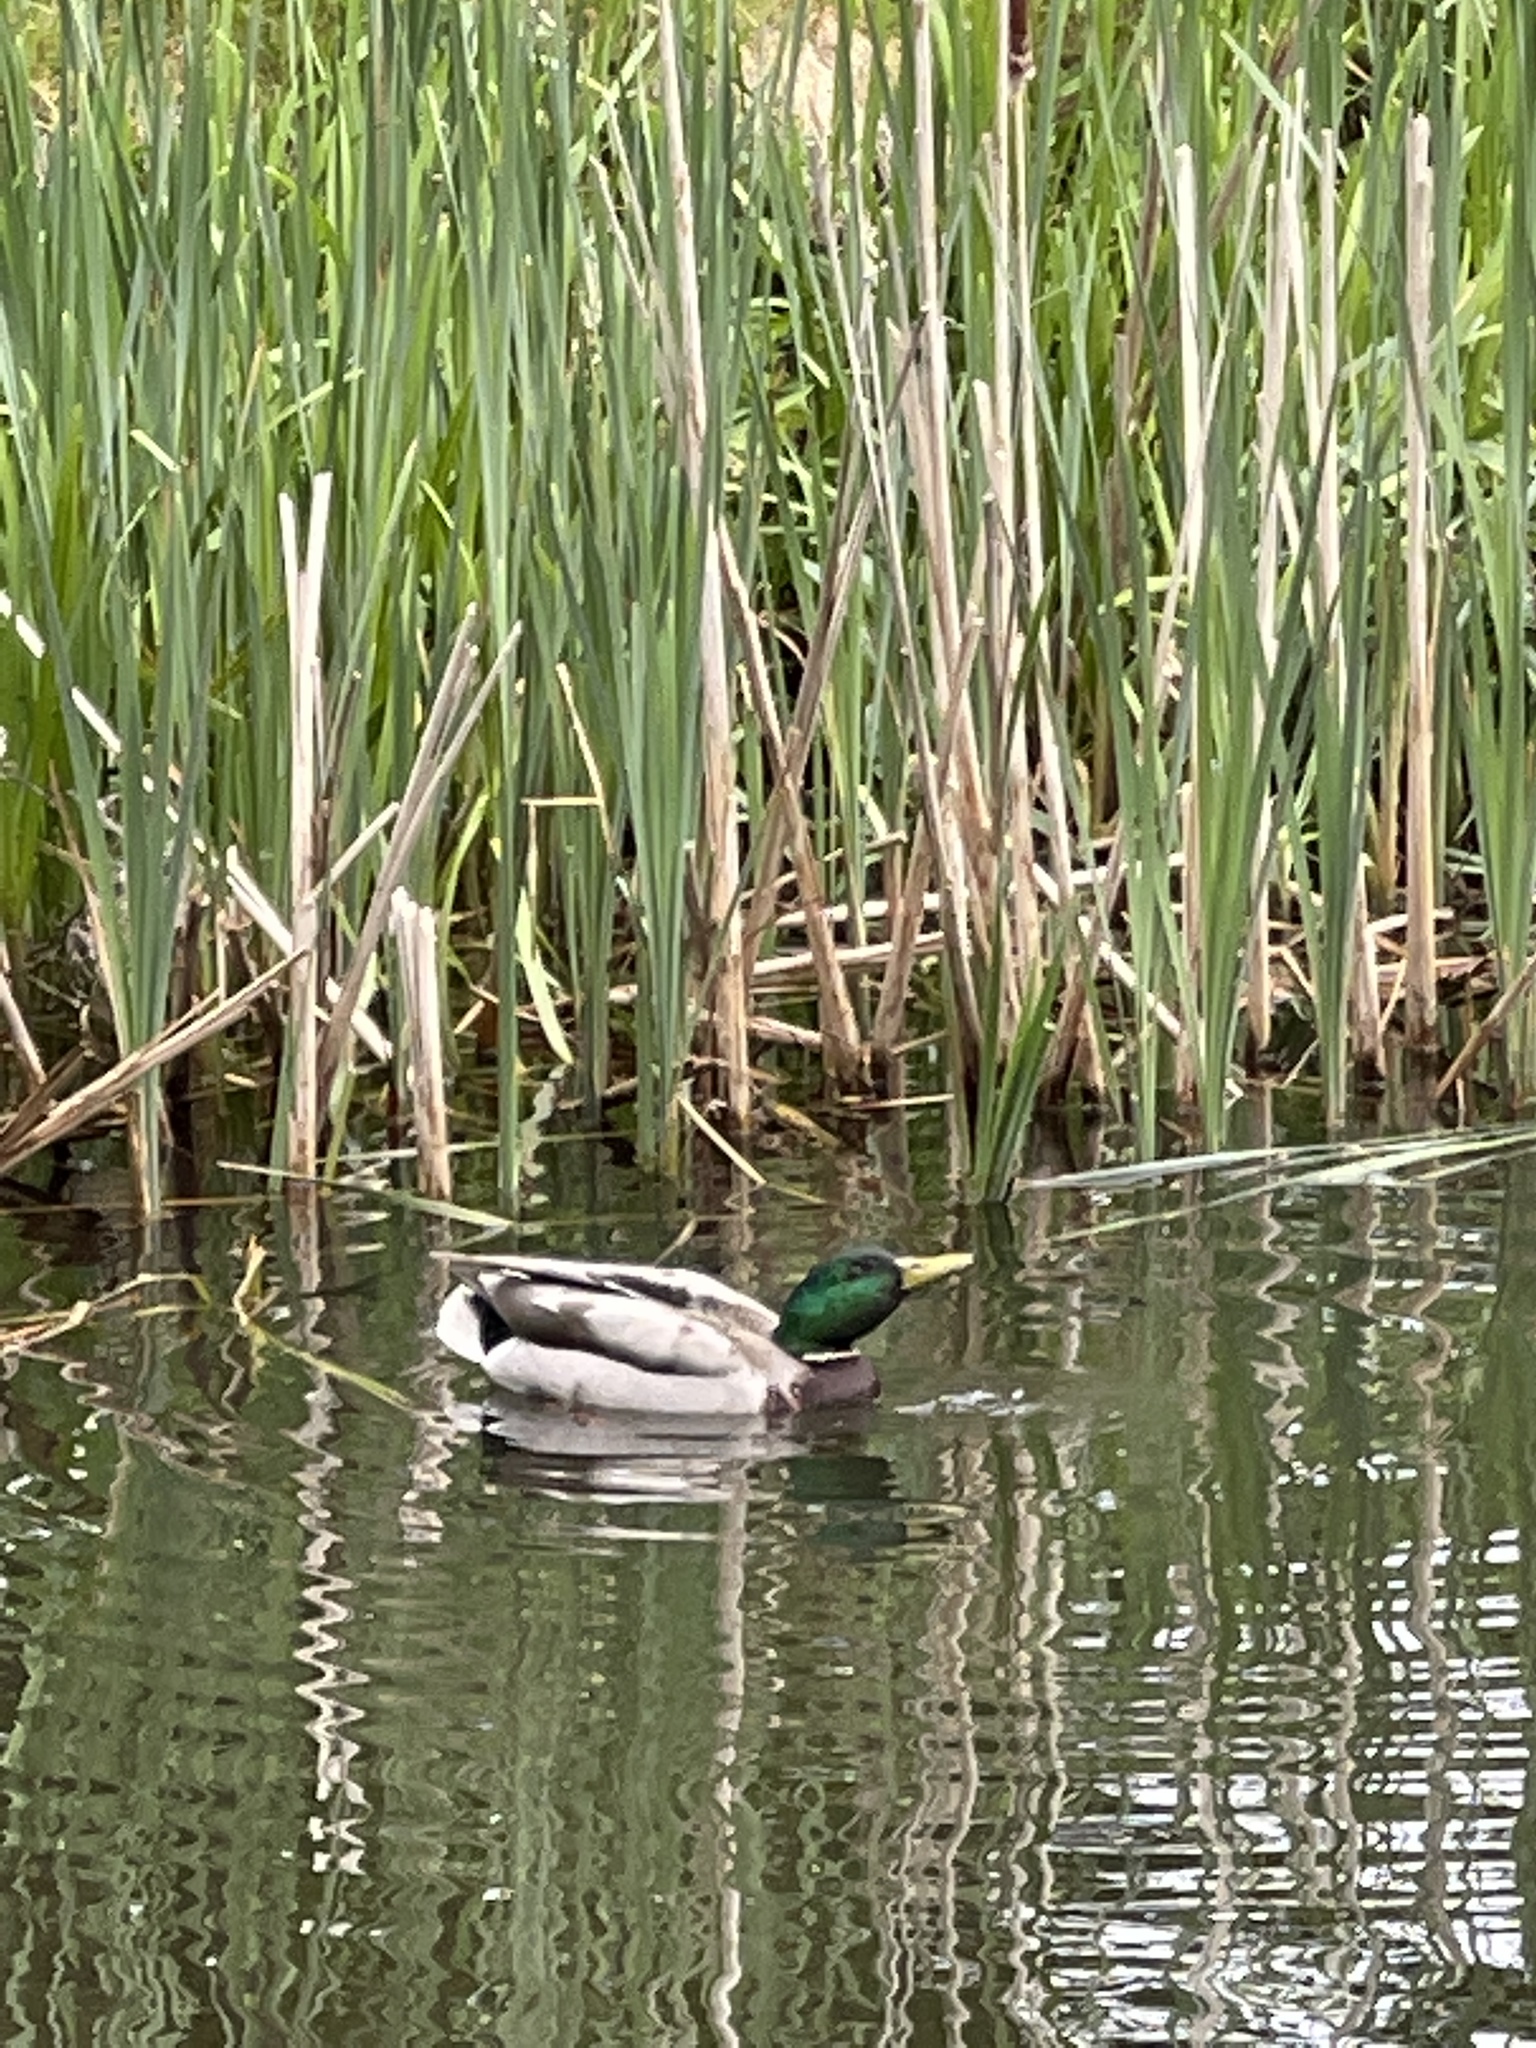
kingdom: Animalia
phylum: Chordata
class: Aves
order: Anseriformes
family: Anatidae
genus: Anas
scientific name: Anas platyrhynchos
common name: Mallard
